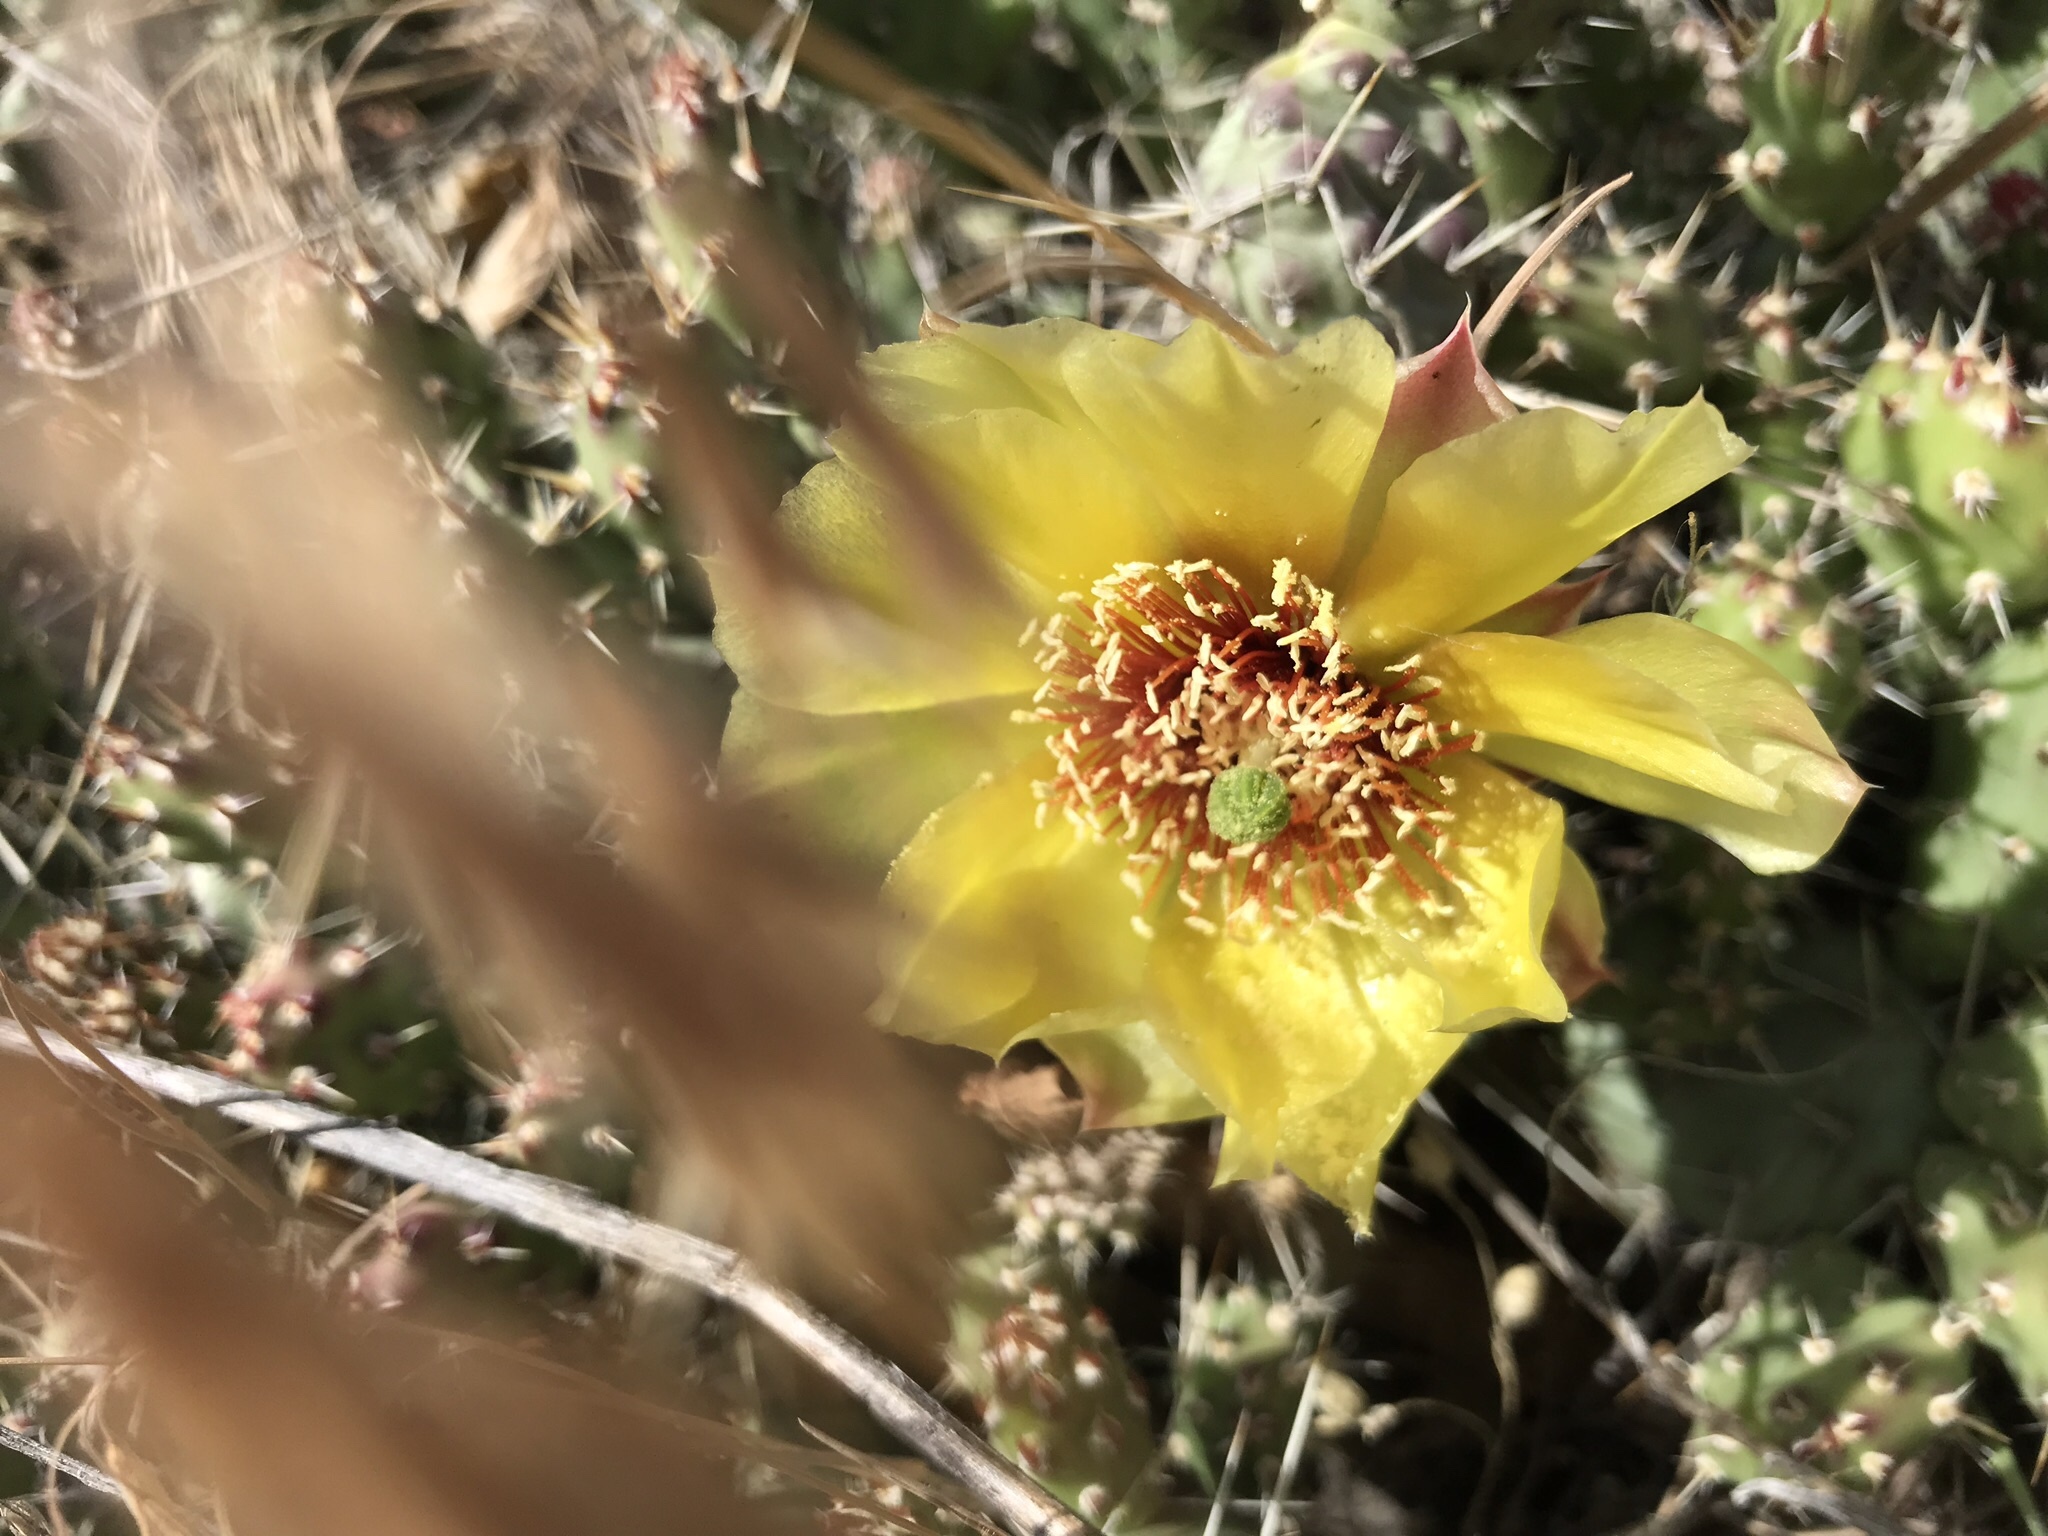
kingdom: Plantae
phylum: Tracheophyta
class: Magnoliopsida
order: Caryophyllales
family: Cactaceae
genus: Opuntia
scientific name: Opuntia fragilis
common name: Brittle cactus
